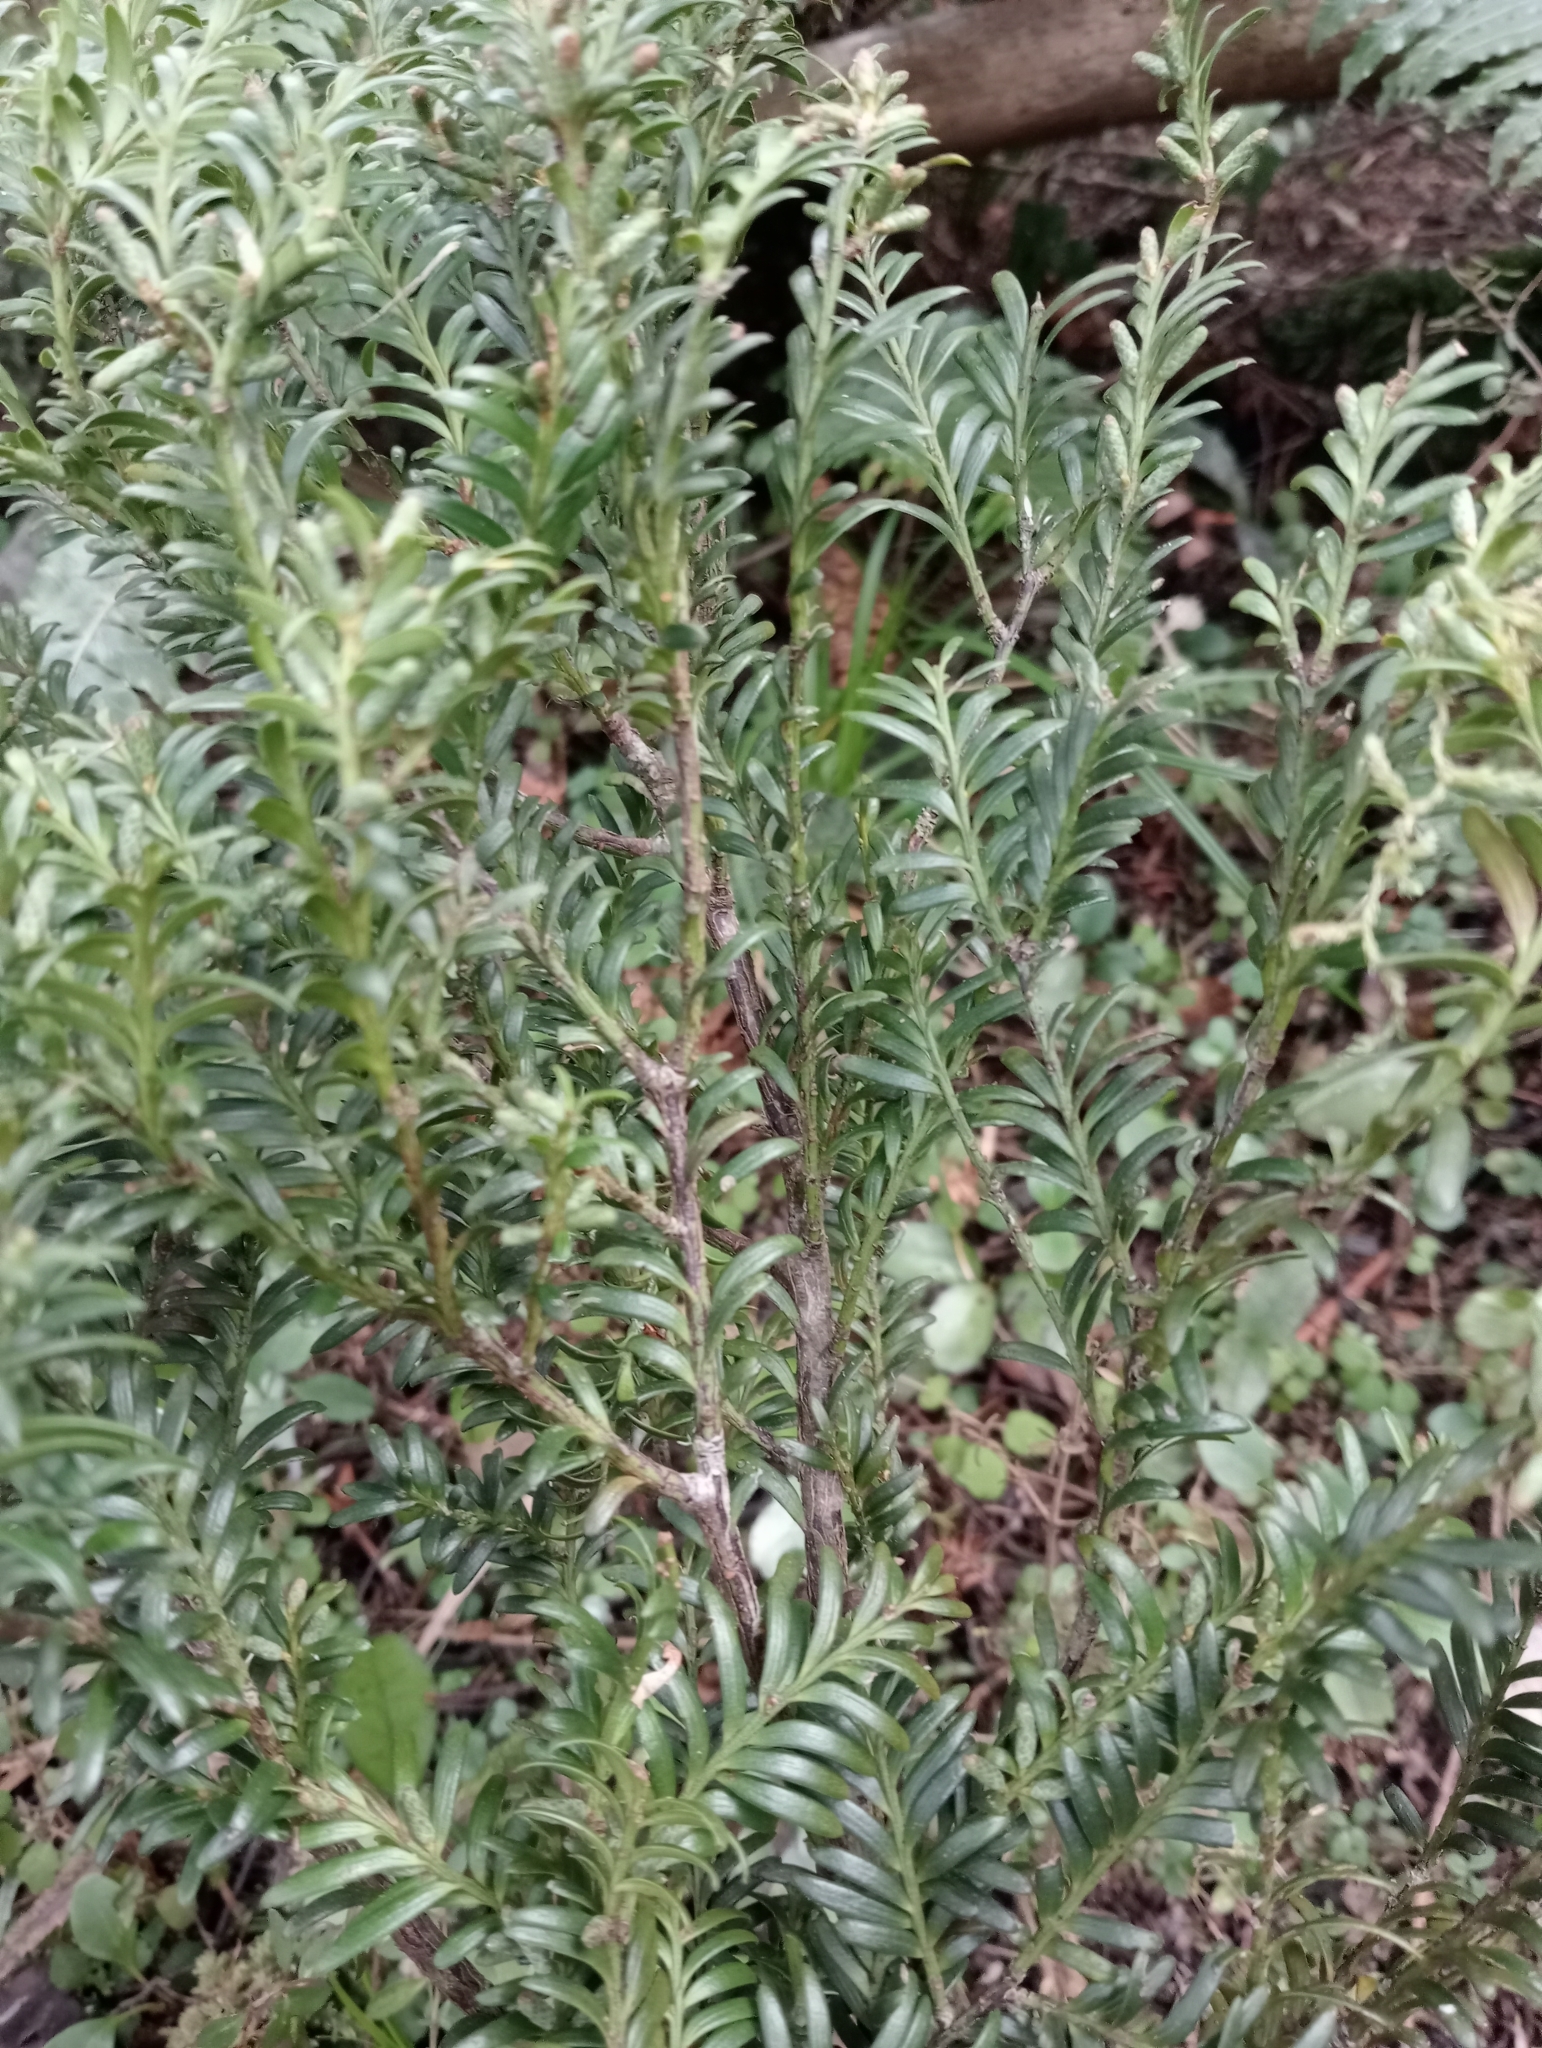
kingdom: Plantae
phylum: Tracheophyta
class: Pinopsida
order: Pinales
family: Podocarpaceae
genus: Prumnopitys
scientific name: Prumnopitys ferruginea
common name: Brown pine
